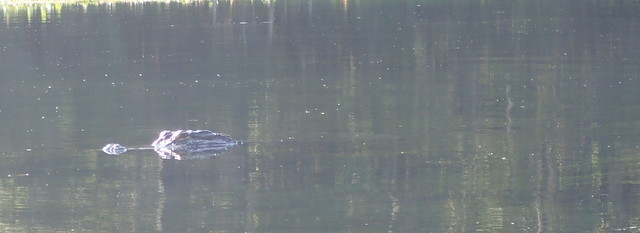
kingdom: Animalia
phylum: Chordata
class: Crocodylia
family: Alligatoridae
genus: Alligator
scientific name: Alligator mississippiensis
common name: American alligator
